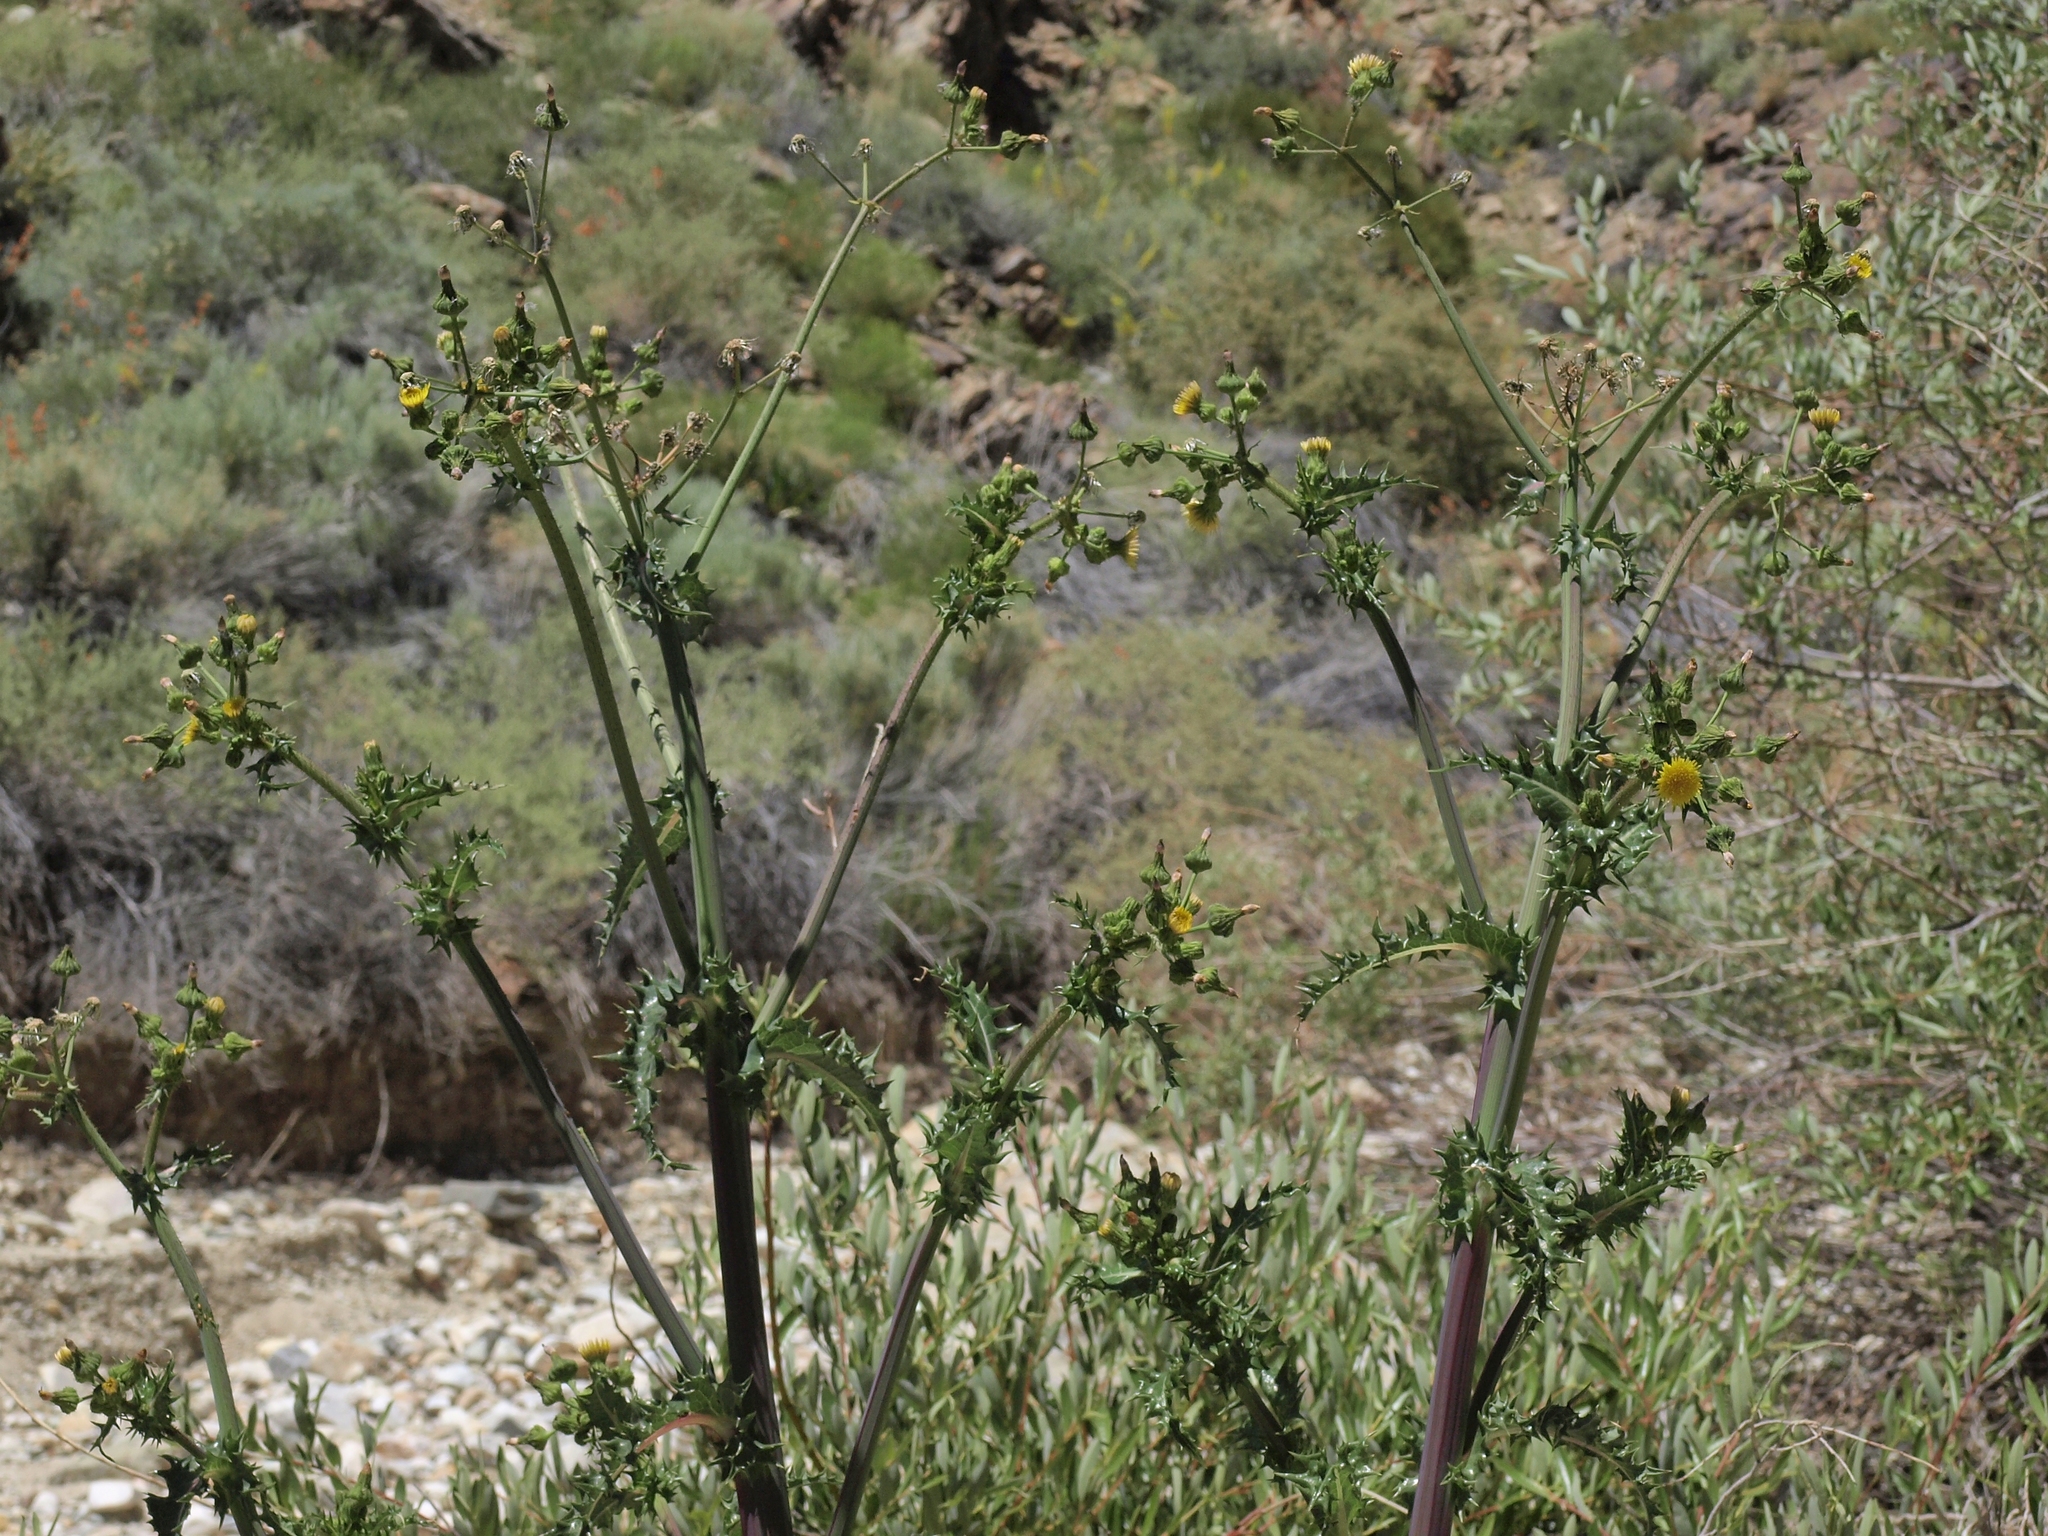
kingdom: Plantae
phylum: Tracheophyta
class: Magnoliopsida
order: Asterales
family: Asteraceae
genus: Sonchus
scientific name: Sonchus asper
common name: Prickly sow-thistle
